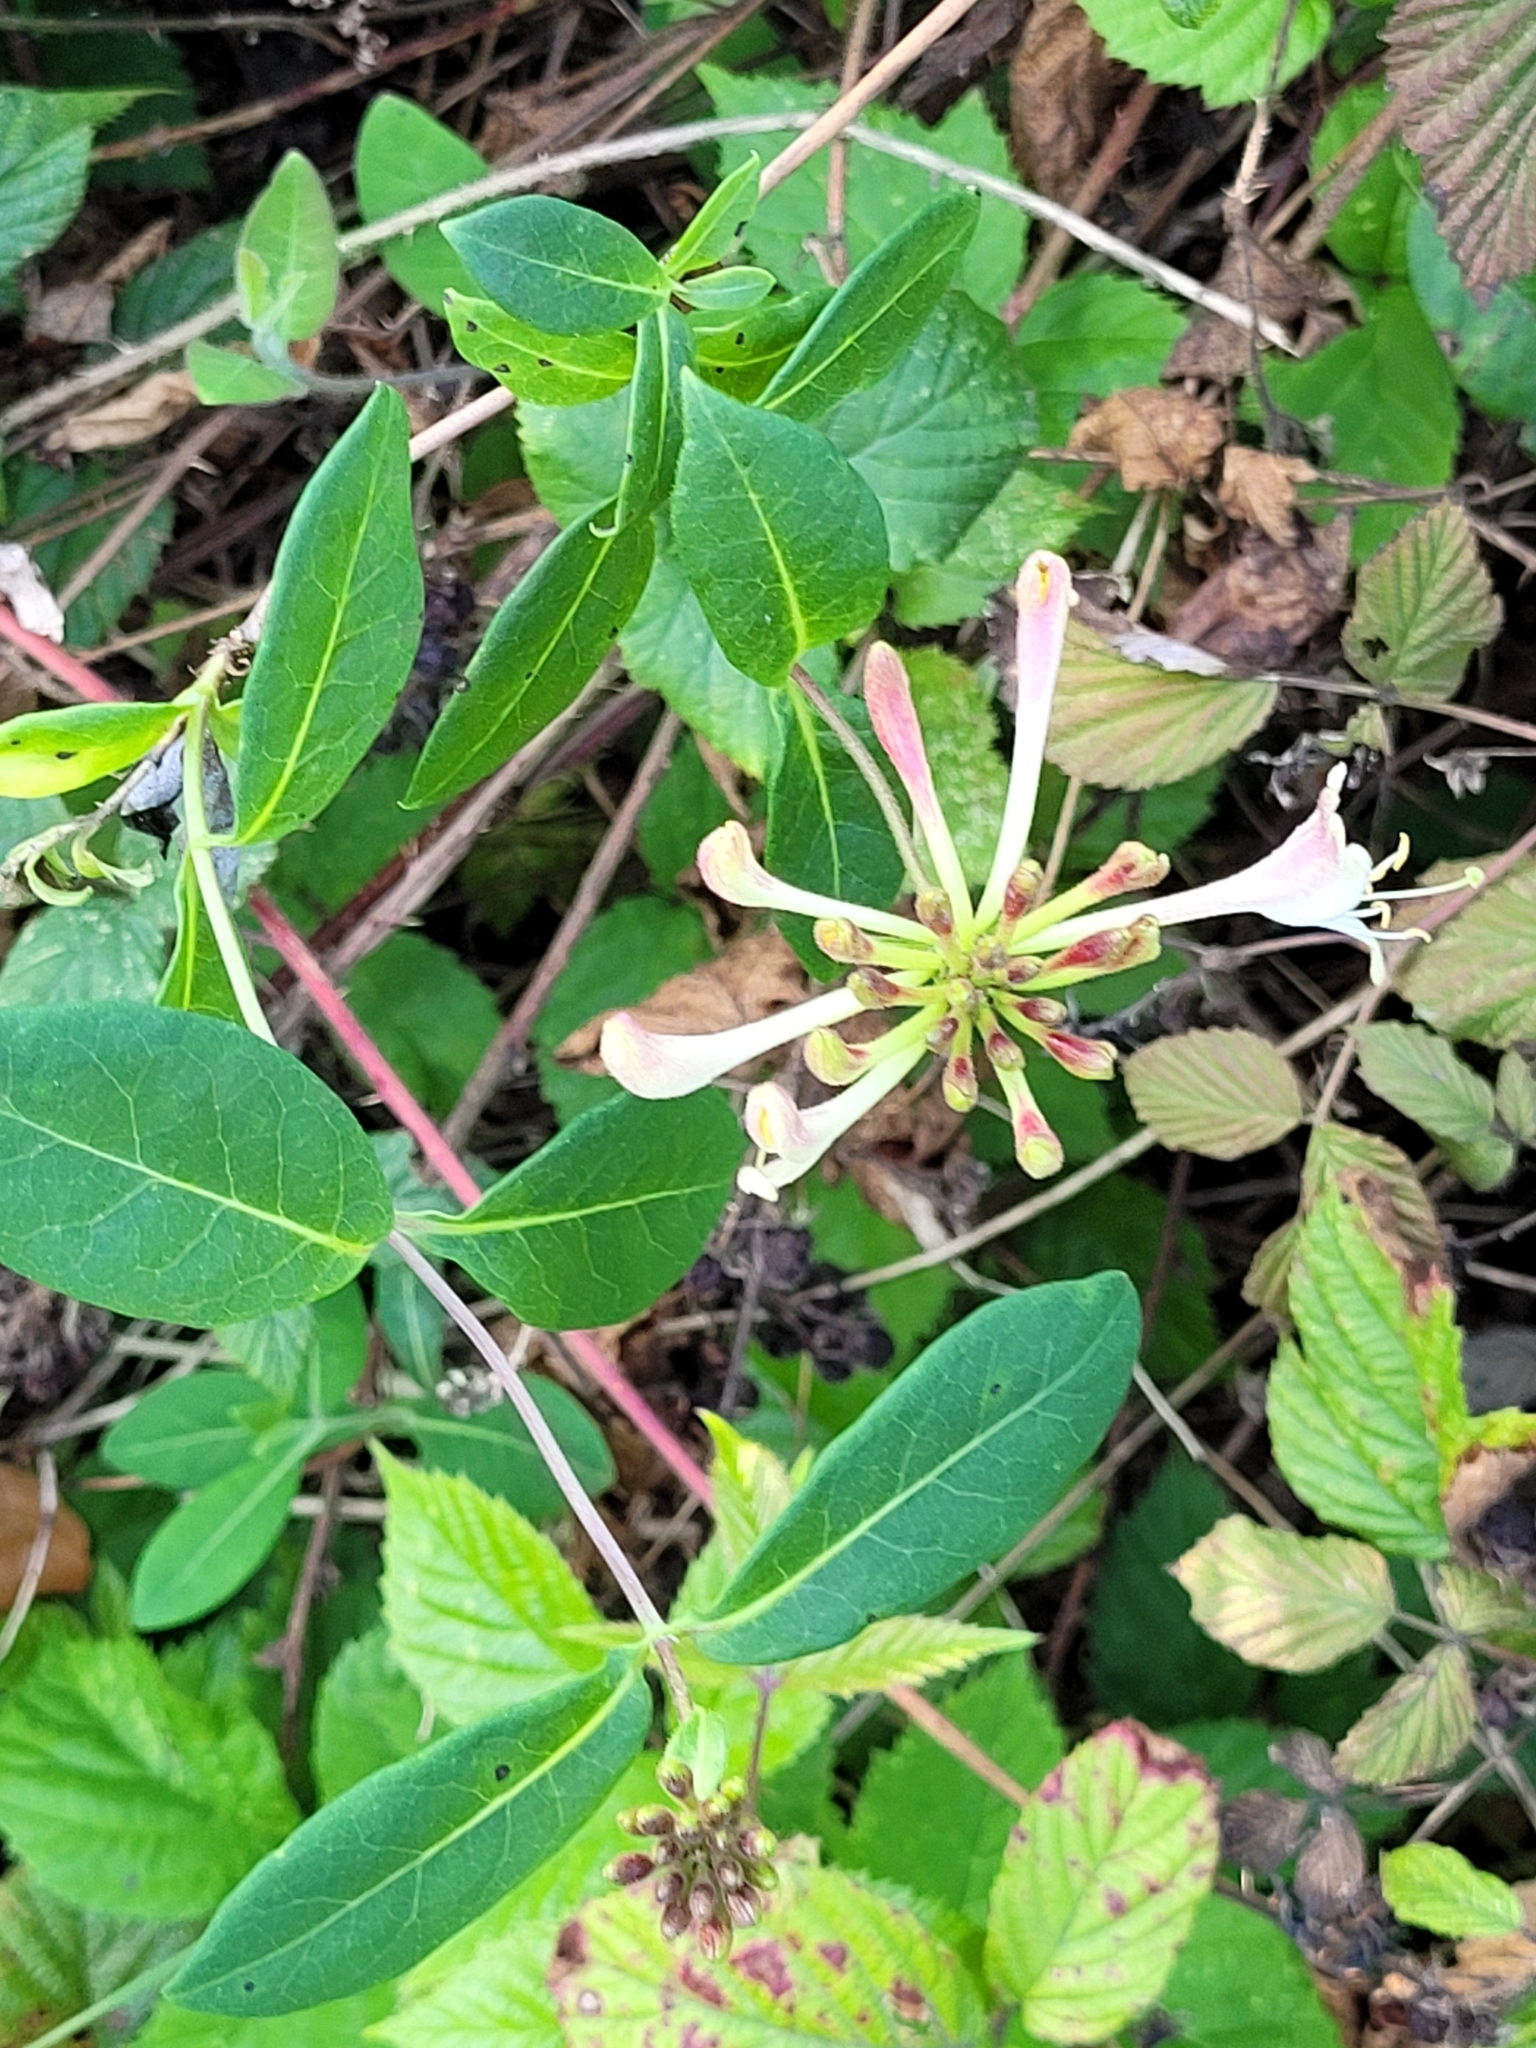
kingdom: Plantae
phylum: Tracheophyta
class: Magnoliopsida
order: Dipsacales
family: Caprifoliaceae
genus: Lonicera
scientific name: Lonicera periclymenum
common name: European honeysuckle
